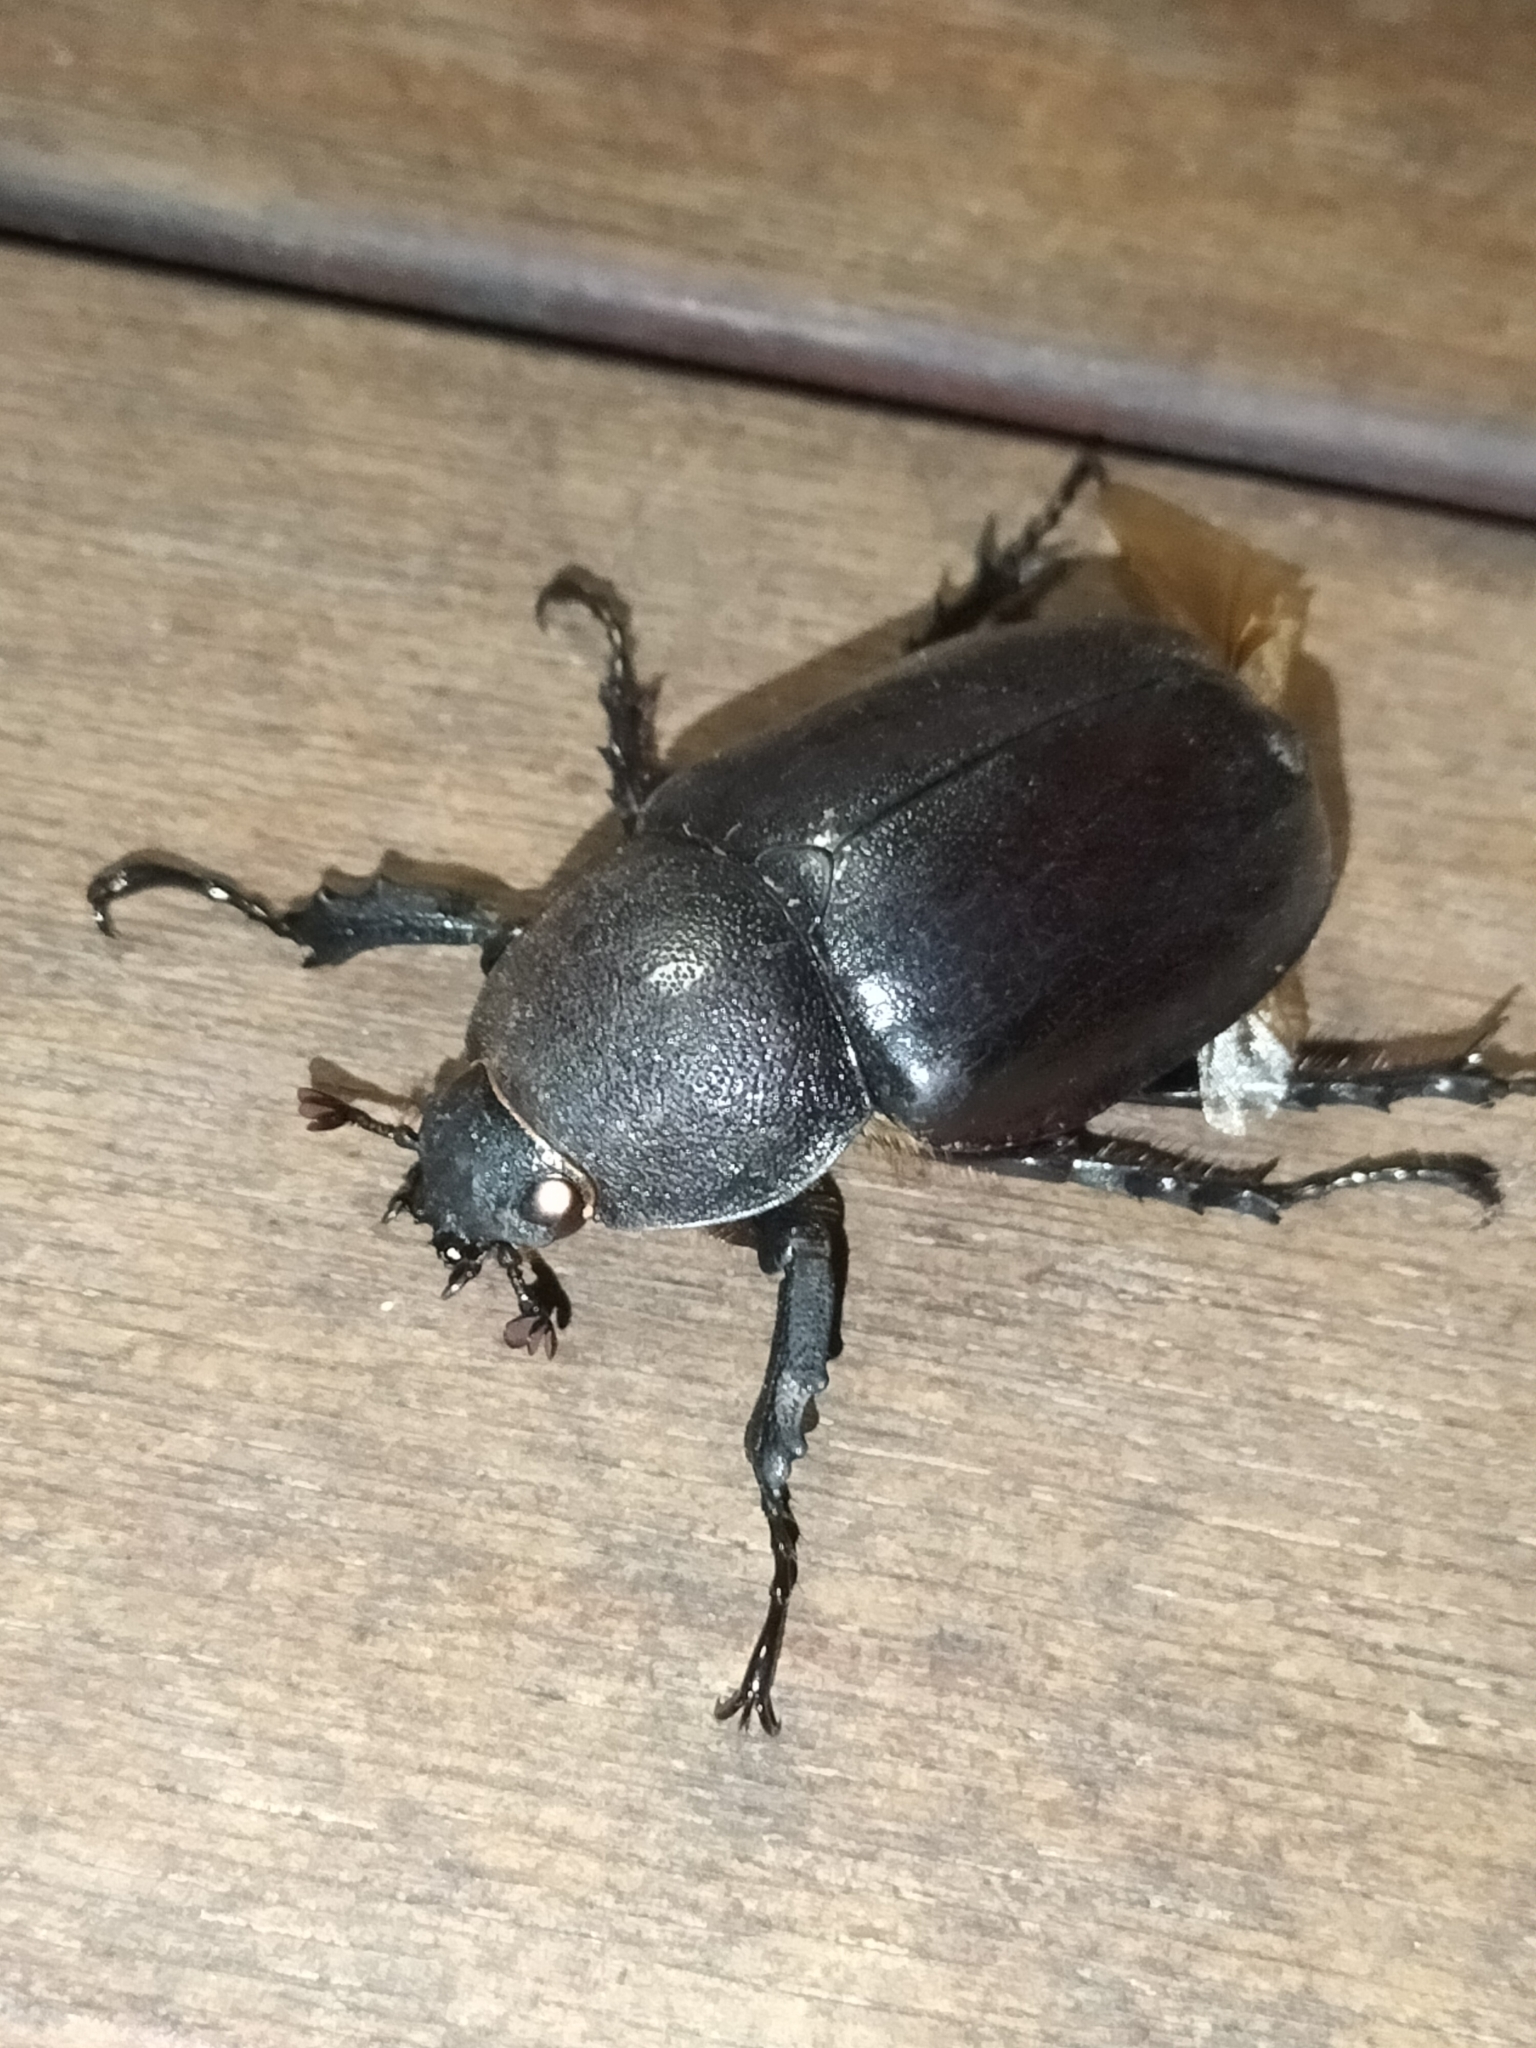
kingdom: Animalia
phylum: Arthropoda
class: Insecta
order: Coleoptera
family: Scarabaeidae
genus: Xylotrupes
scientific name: Xylotrupes australicus
